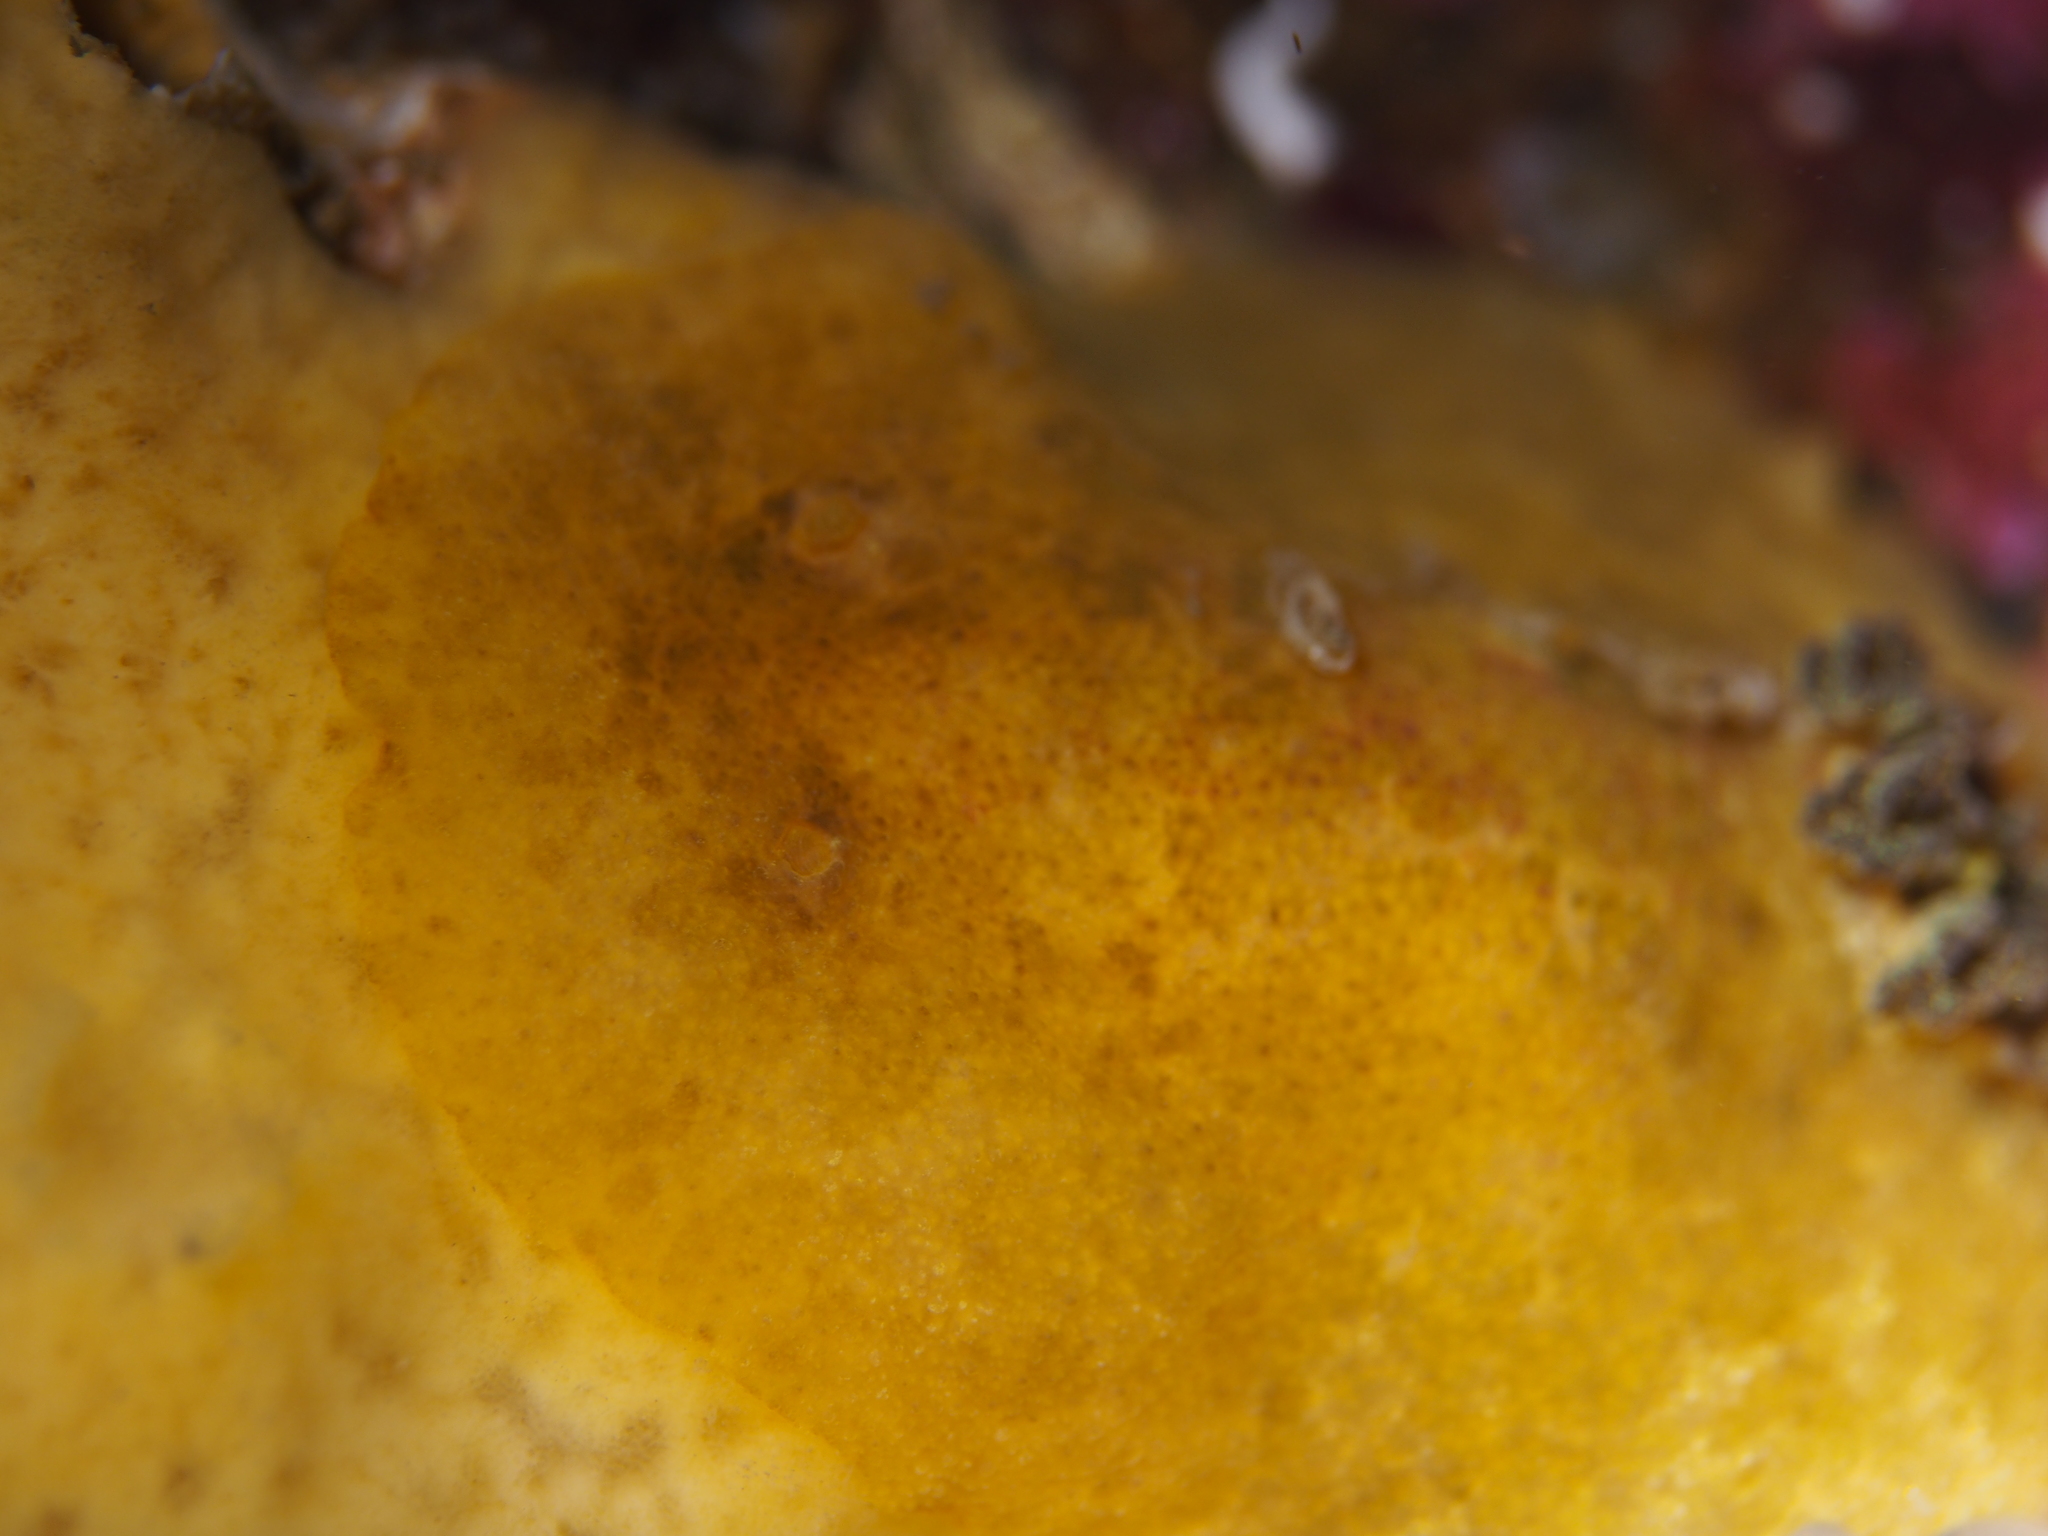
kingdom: Animalia
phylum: Mollusca
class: Gastropoda
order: Nudibranchia
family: Dorididae
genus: Doris
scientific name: Doris pseudoargus
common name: Sea lemon
